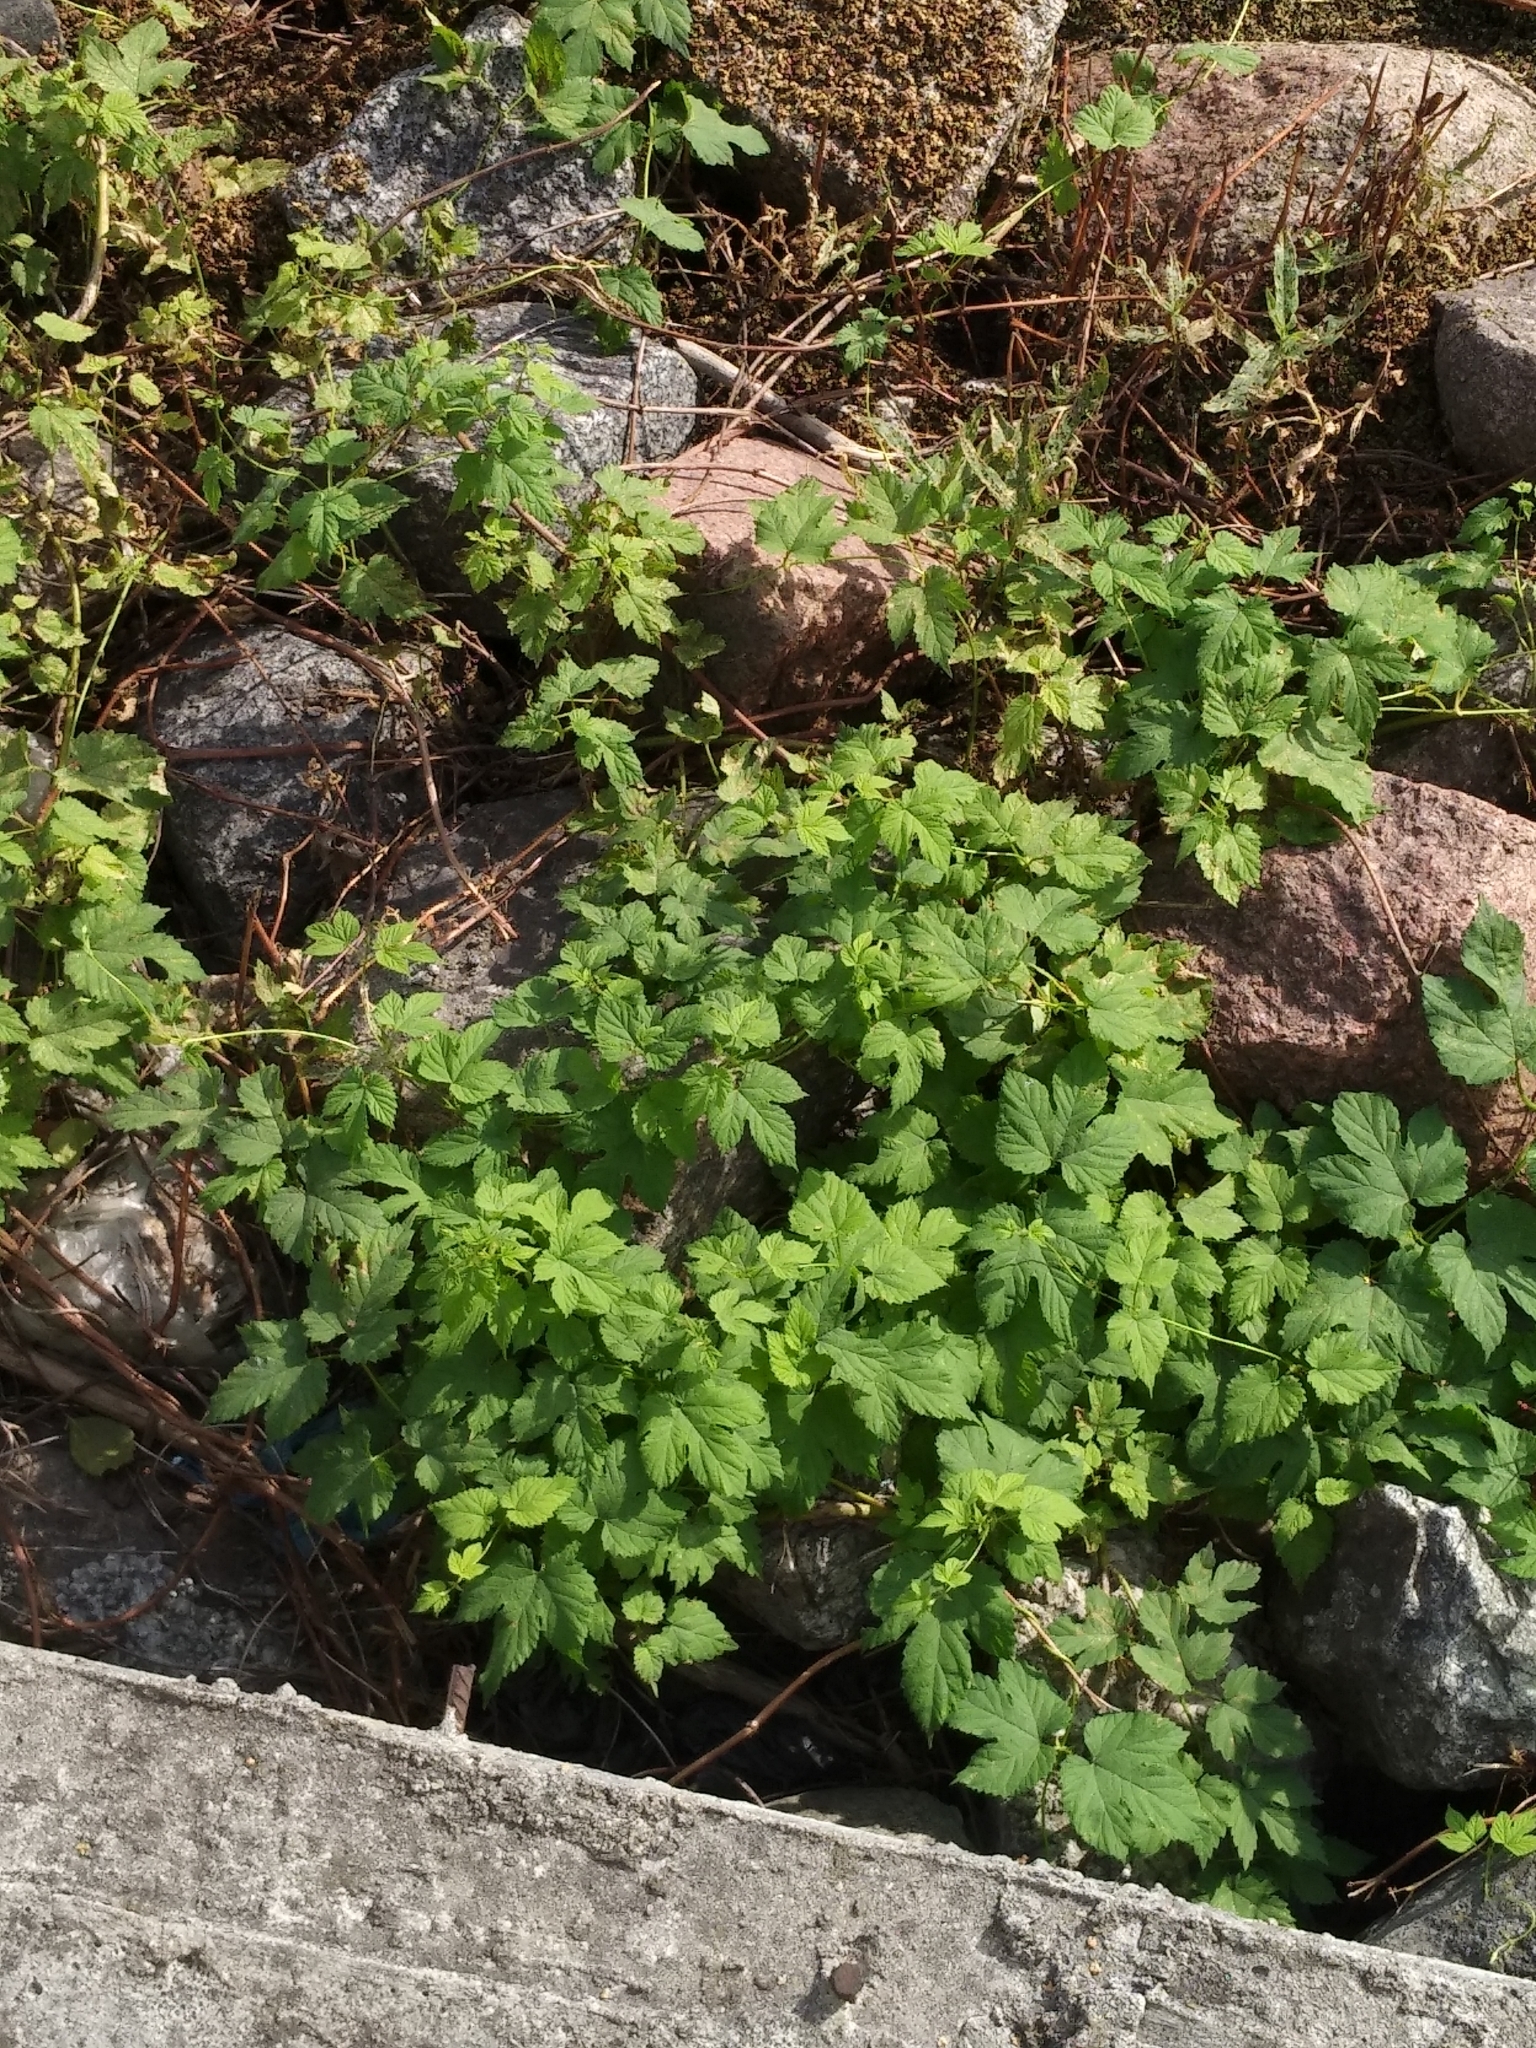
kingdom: Plantae
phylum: Tracheophyta
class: Magnoliopsida
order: Rosales
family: Cannabaceae
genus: Humulus
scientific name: Humulus lupulus
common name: Hop
